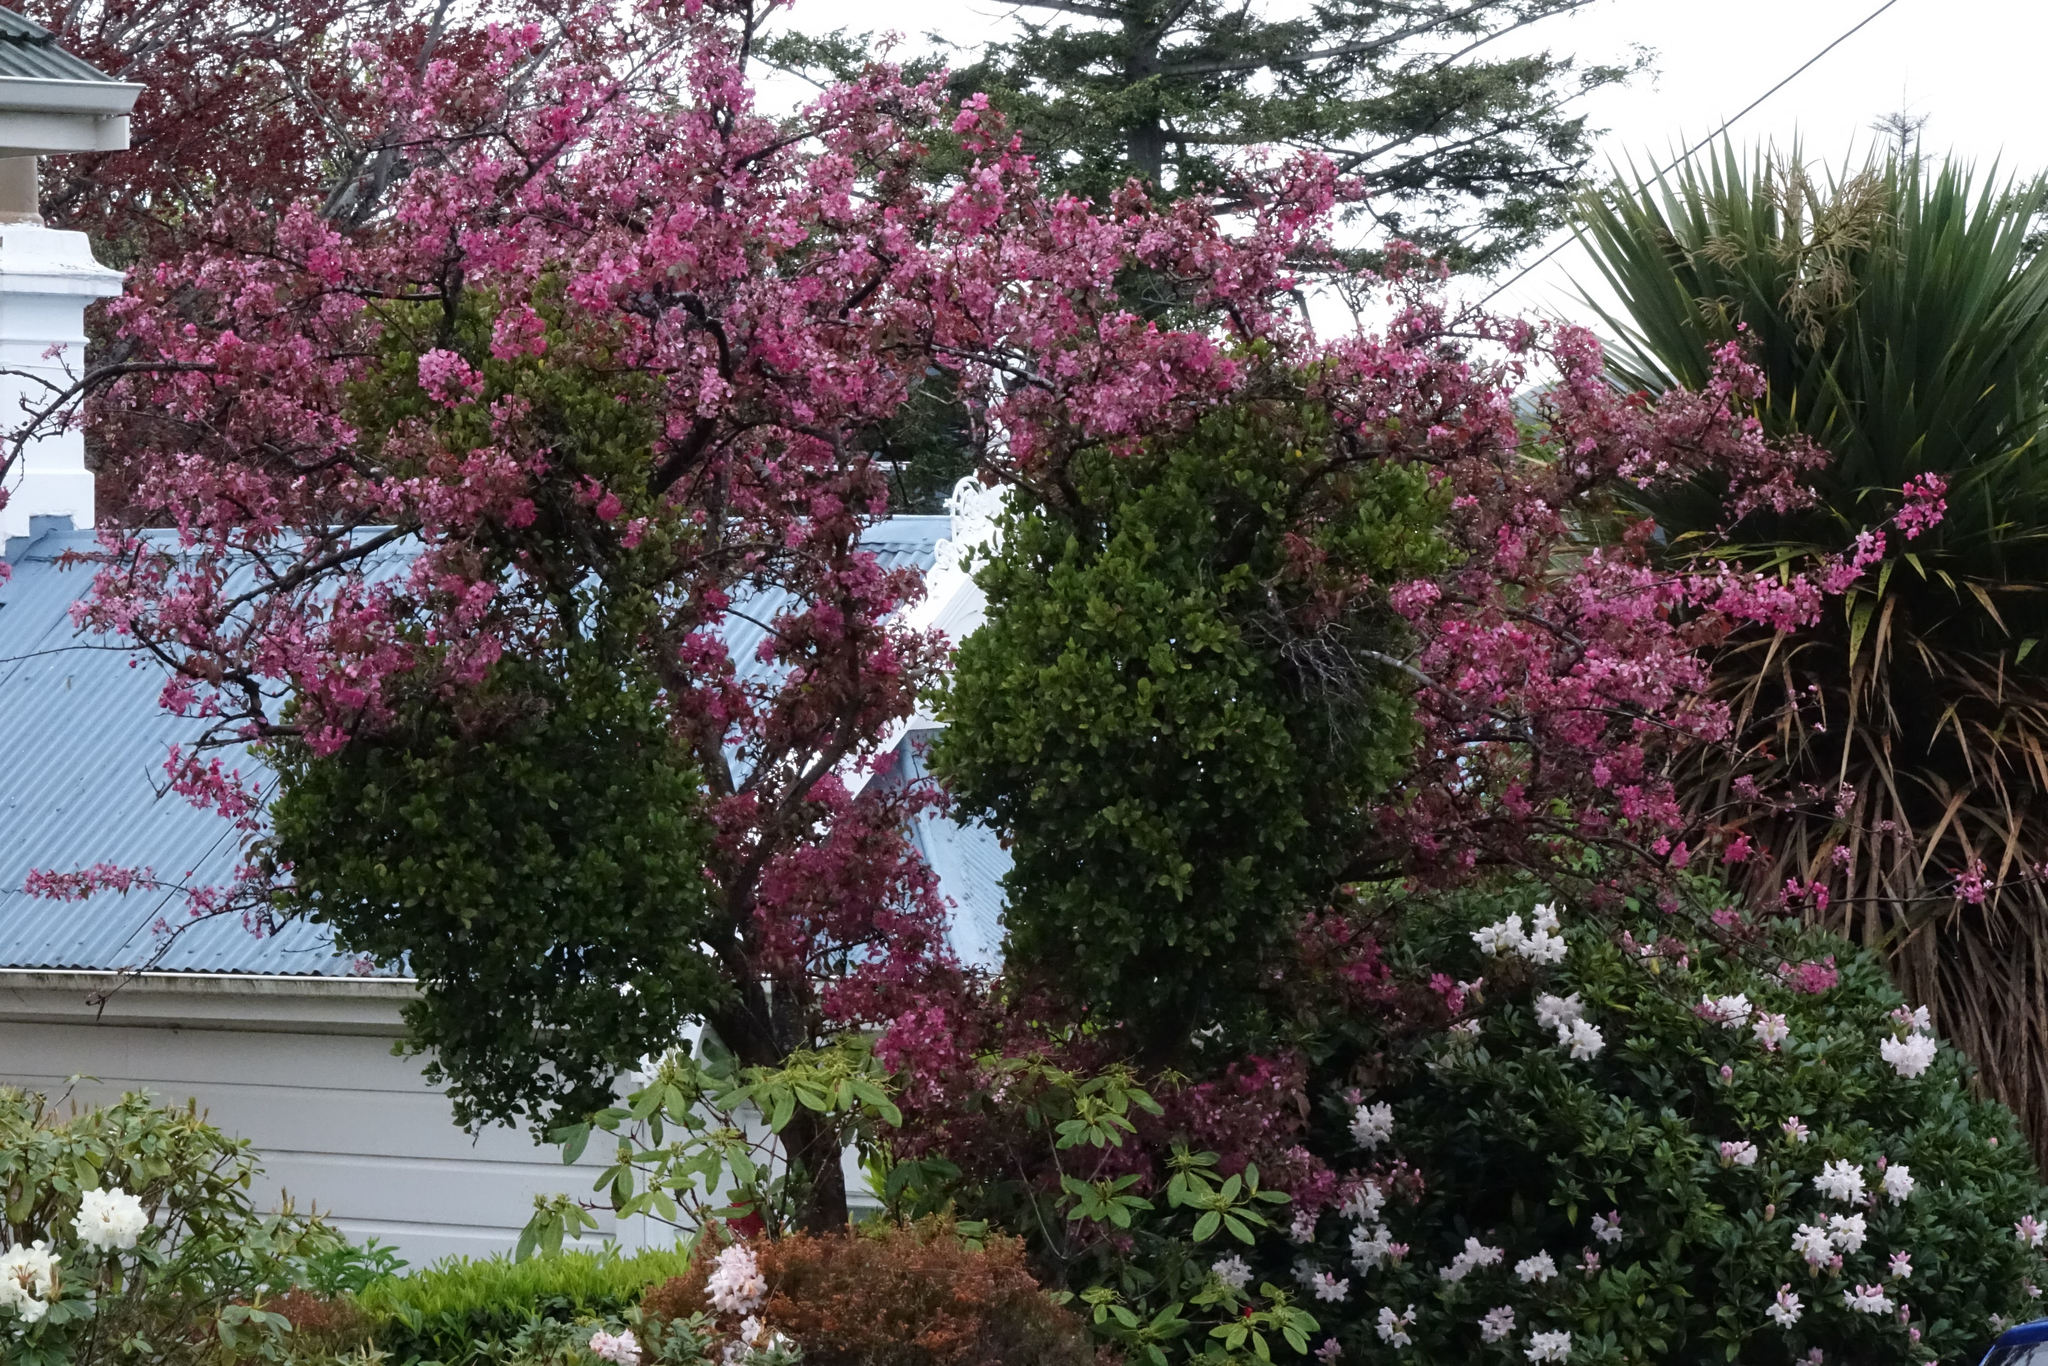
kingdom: Plantae
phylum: Tracheophyta
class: Magnoliopsida
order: Santalales
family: Loranthaceae
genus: Ileostylus
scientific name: Ileostylus micranthus
